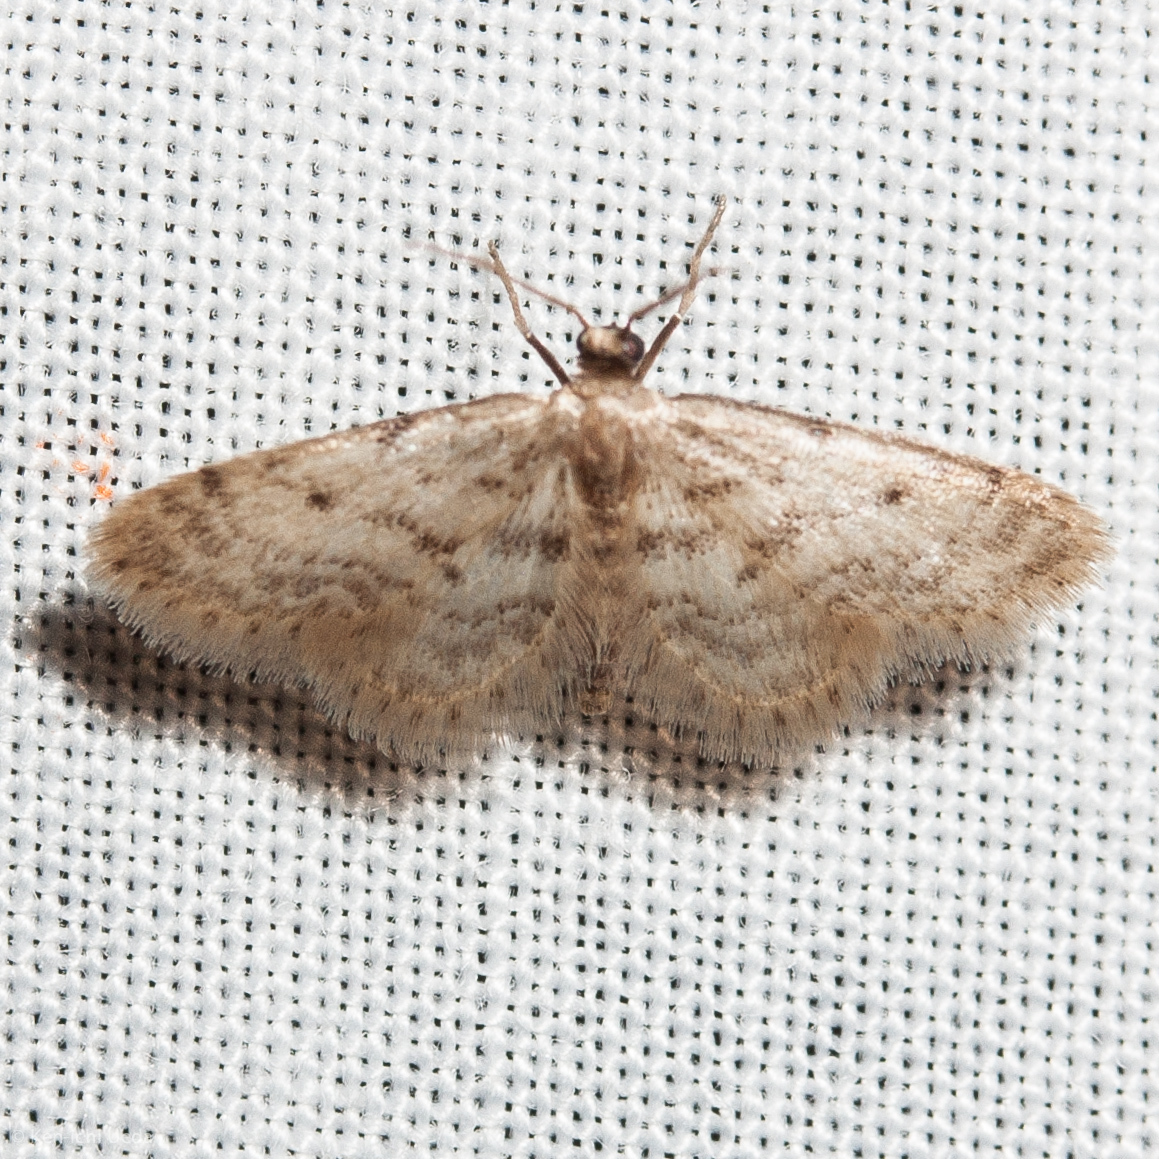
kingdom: Animalia
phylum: Arthropoda
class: Insecta
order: Lepidoptera
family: Geometridae
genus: Idaea
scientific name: Idaea bonifata
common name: Fortunate wave
